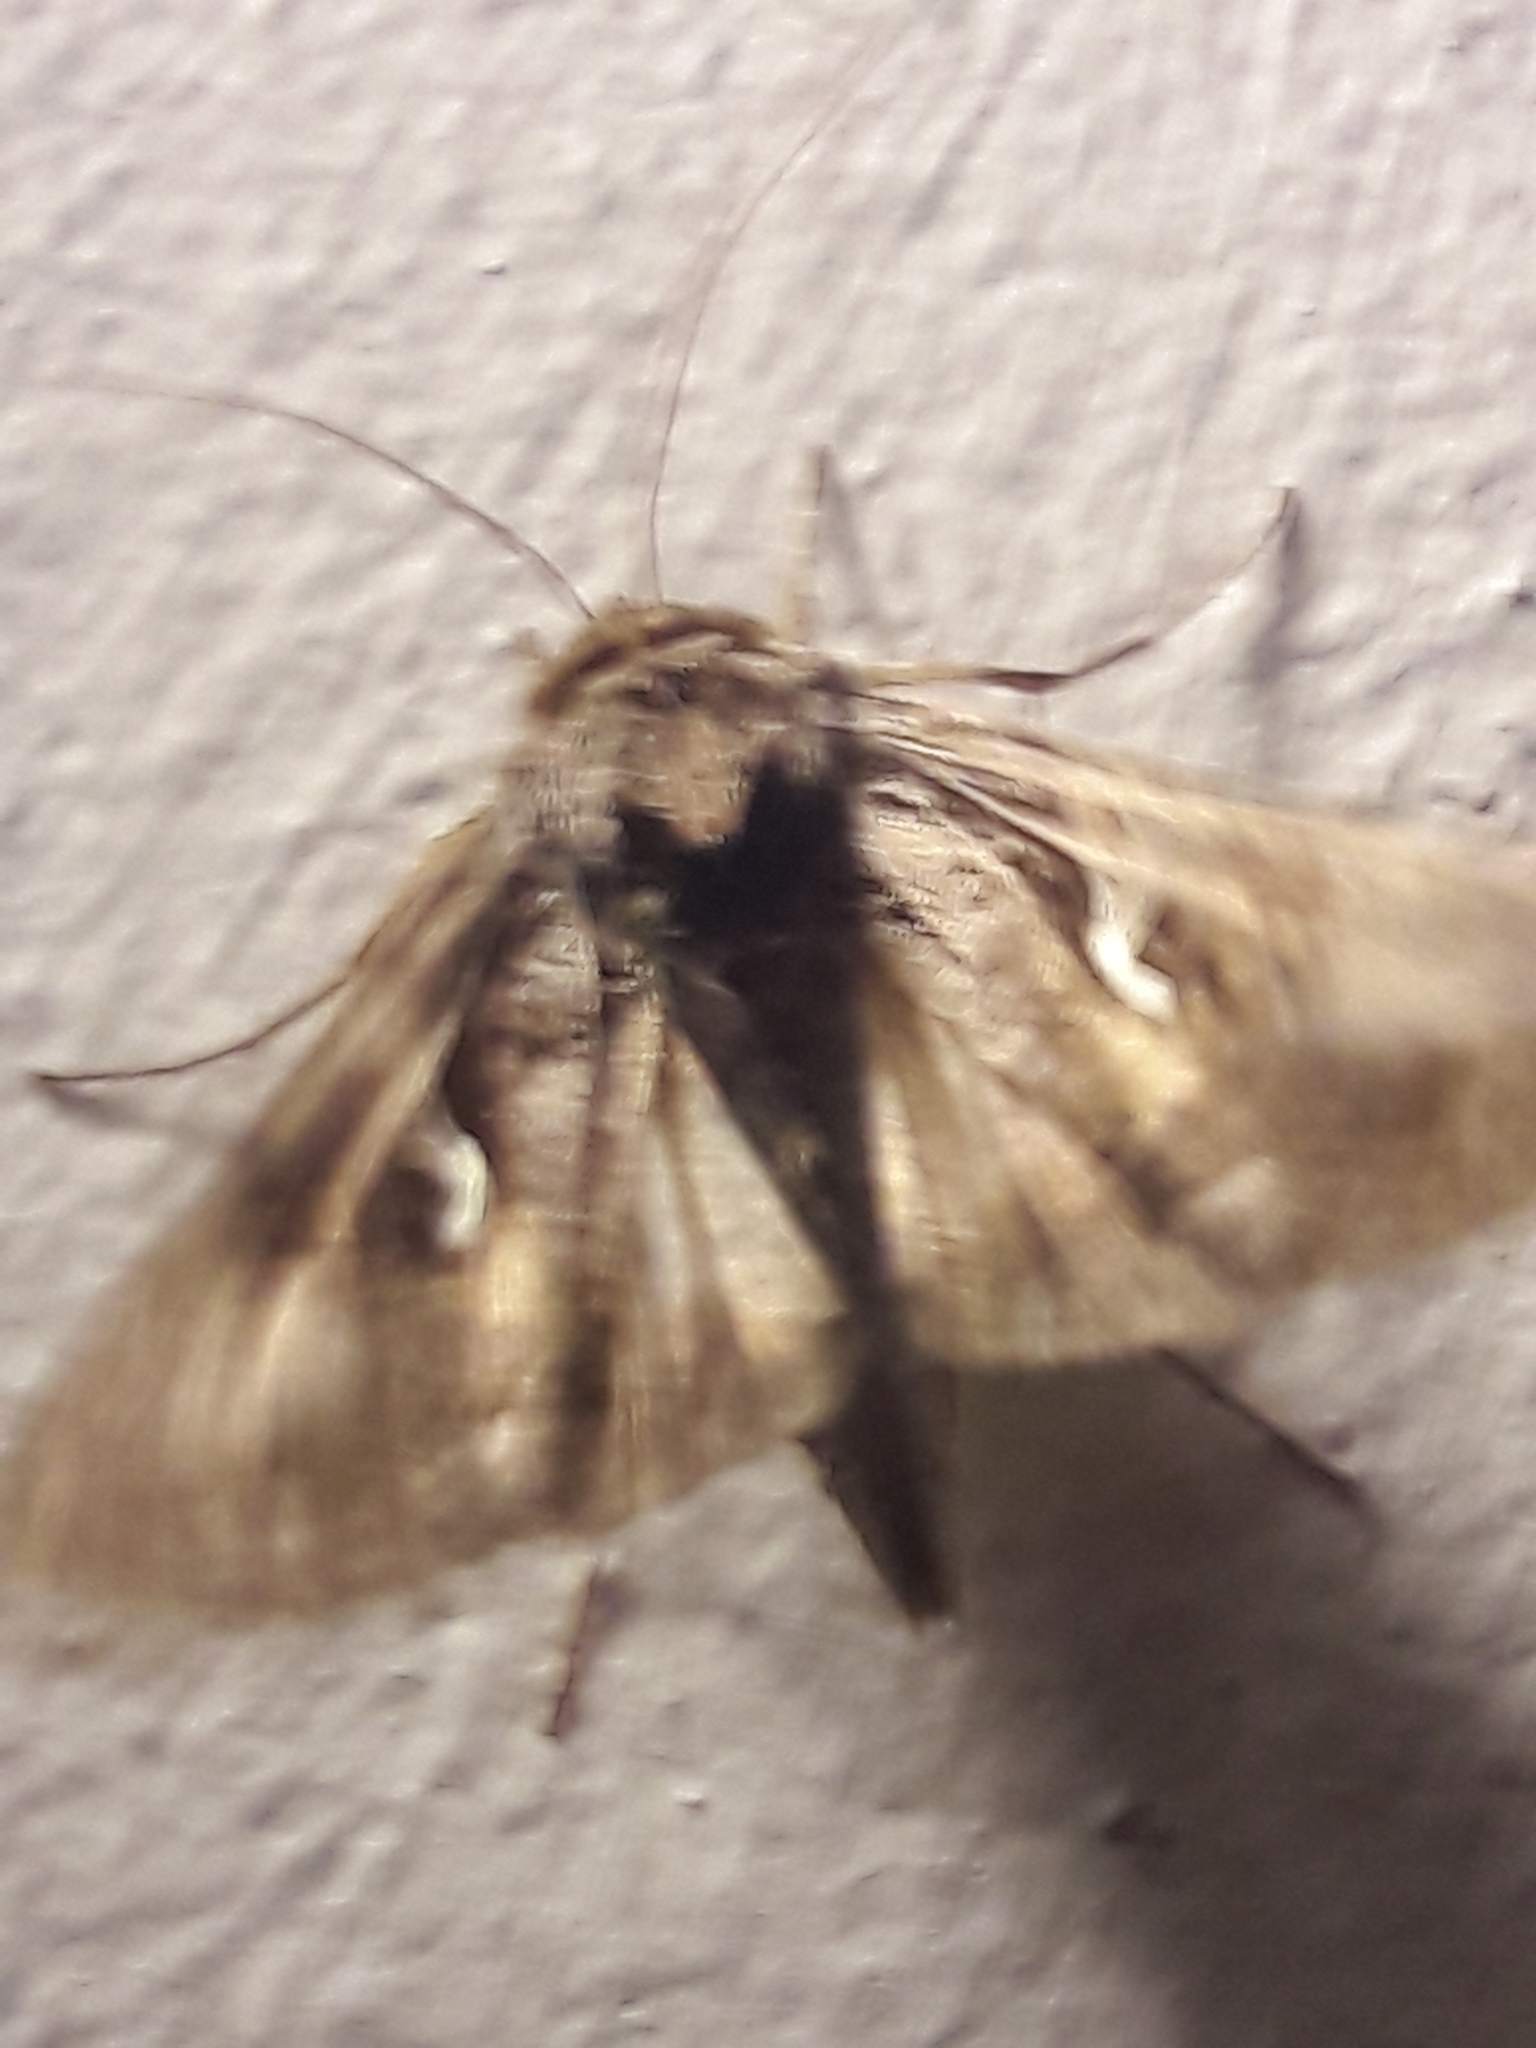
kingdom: Animalia
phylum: Arthropoda
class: Insecta
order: Lepidoptera
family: Noctuidae
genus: Autographa
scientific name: Autographa gamma
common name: Silver y
